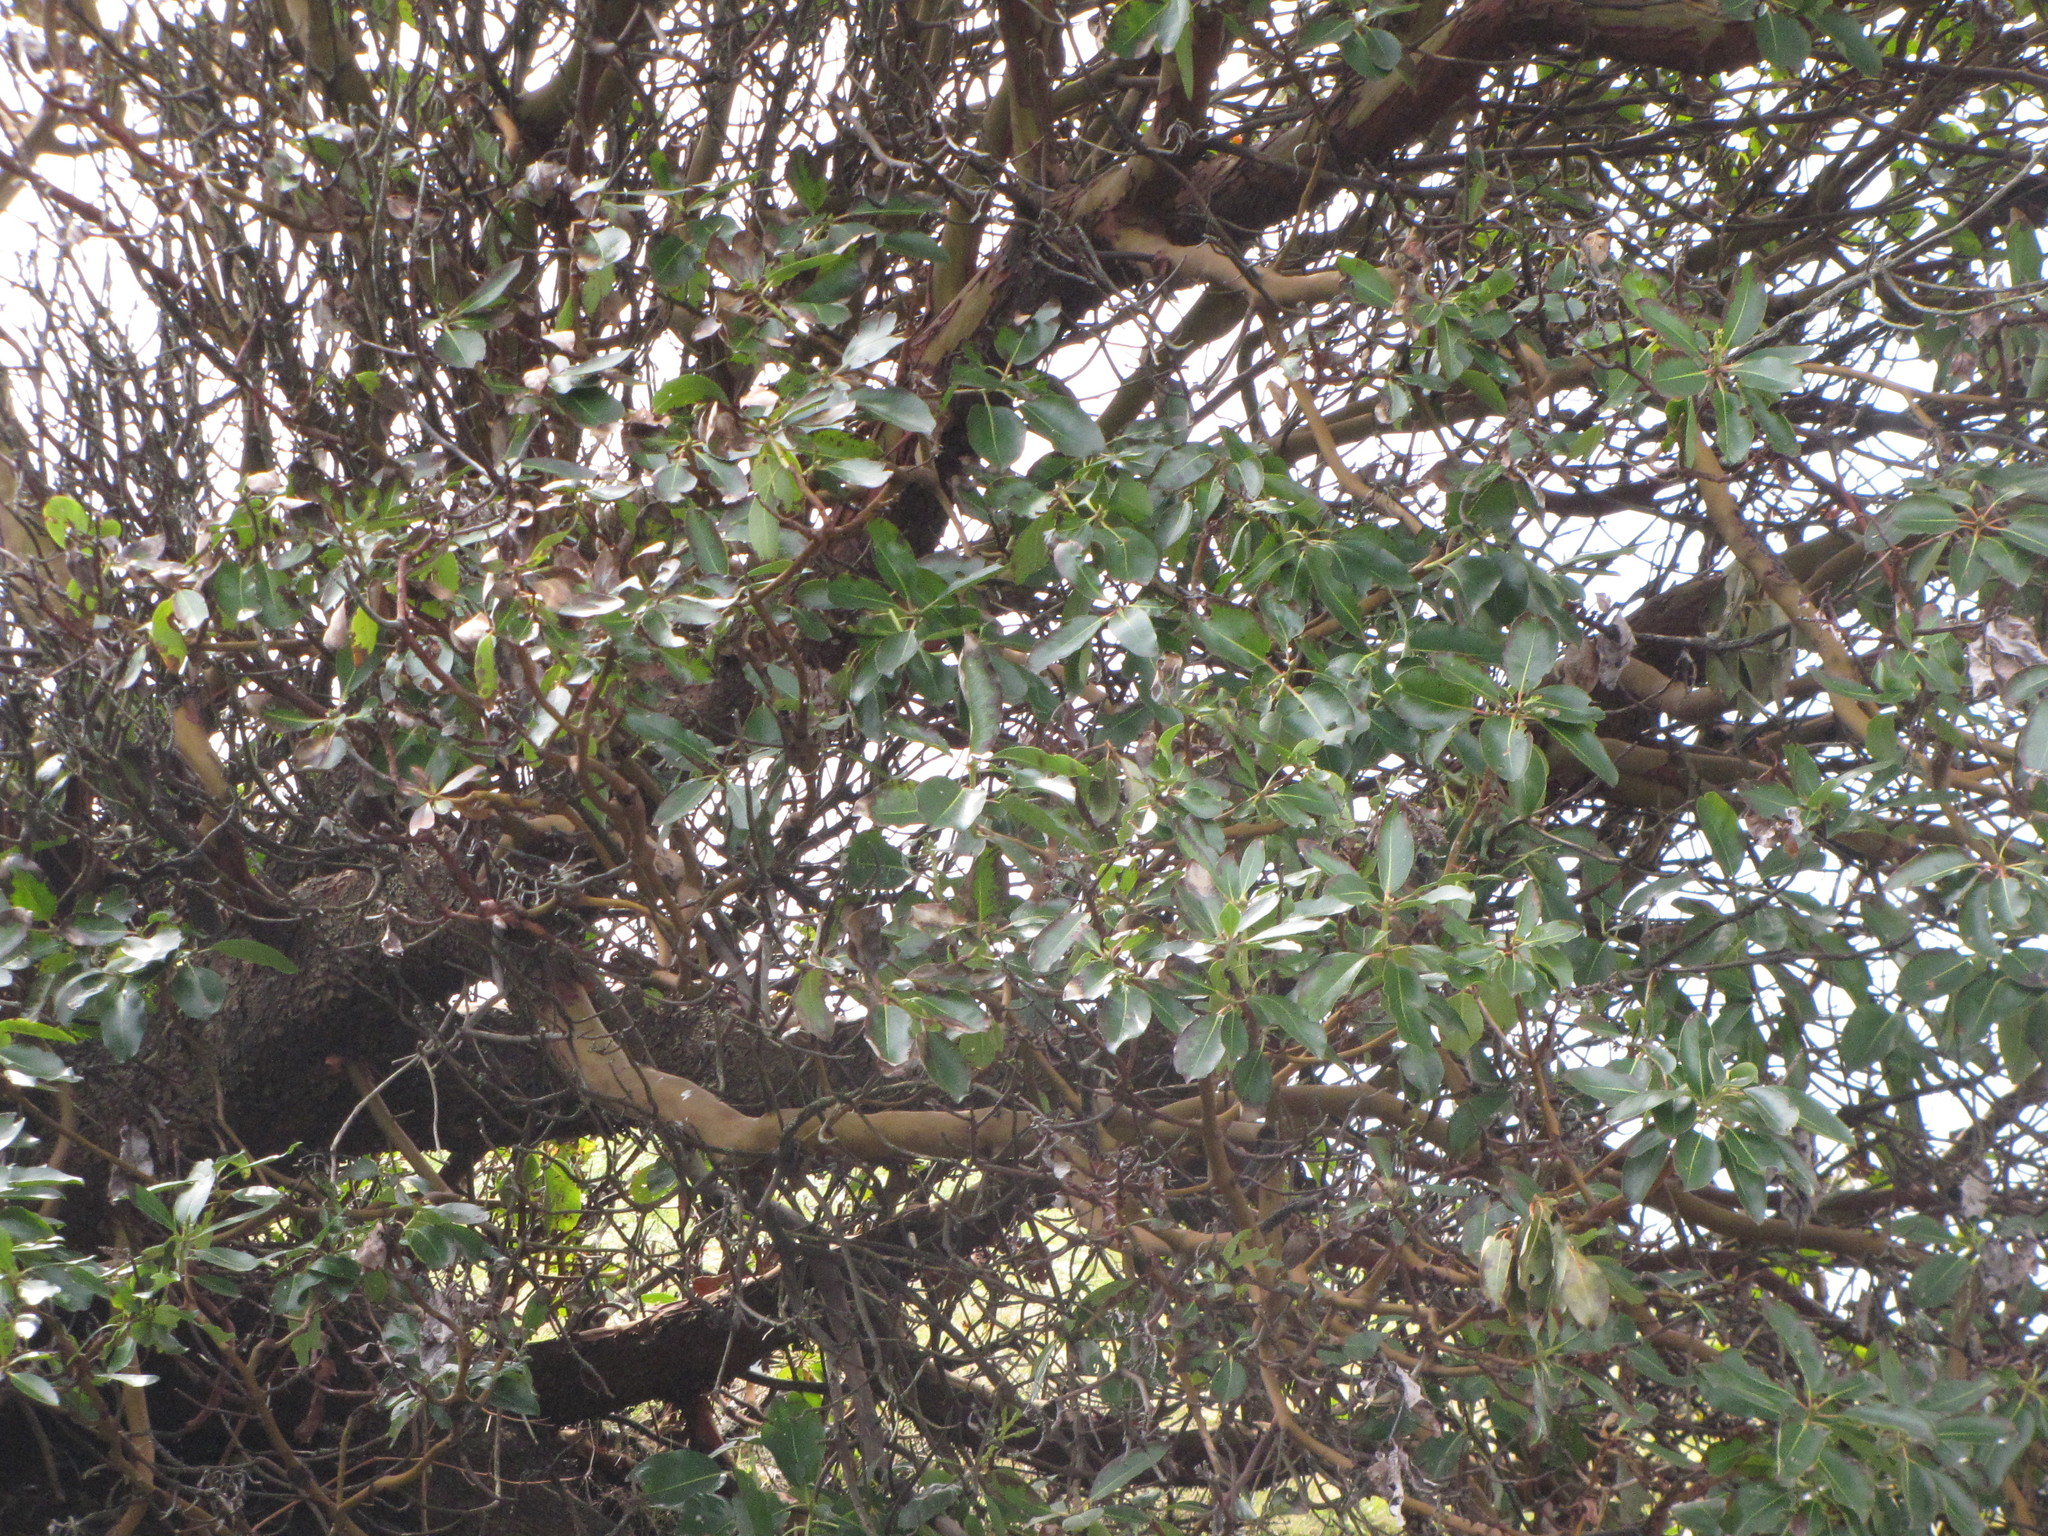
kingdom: Plantae
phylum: Tracheophyta
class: Magnoliopsida
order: Ericales
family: Ericaceae
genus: Arbutus
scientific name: Arbutus menziesii
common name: Pacific madrone
